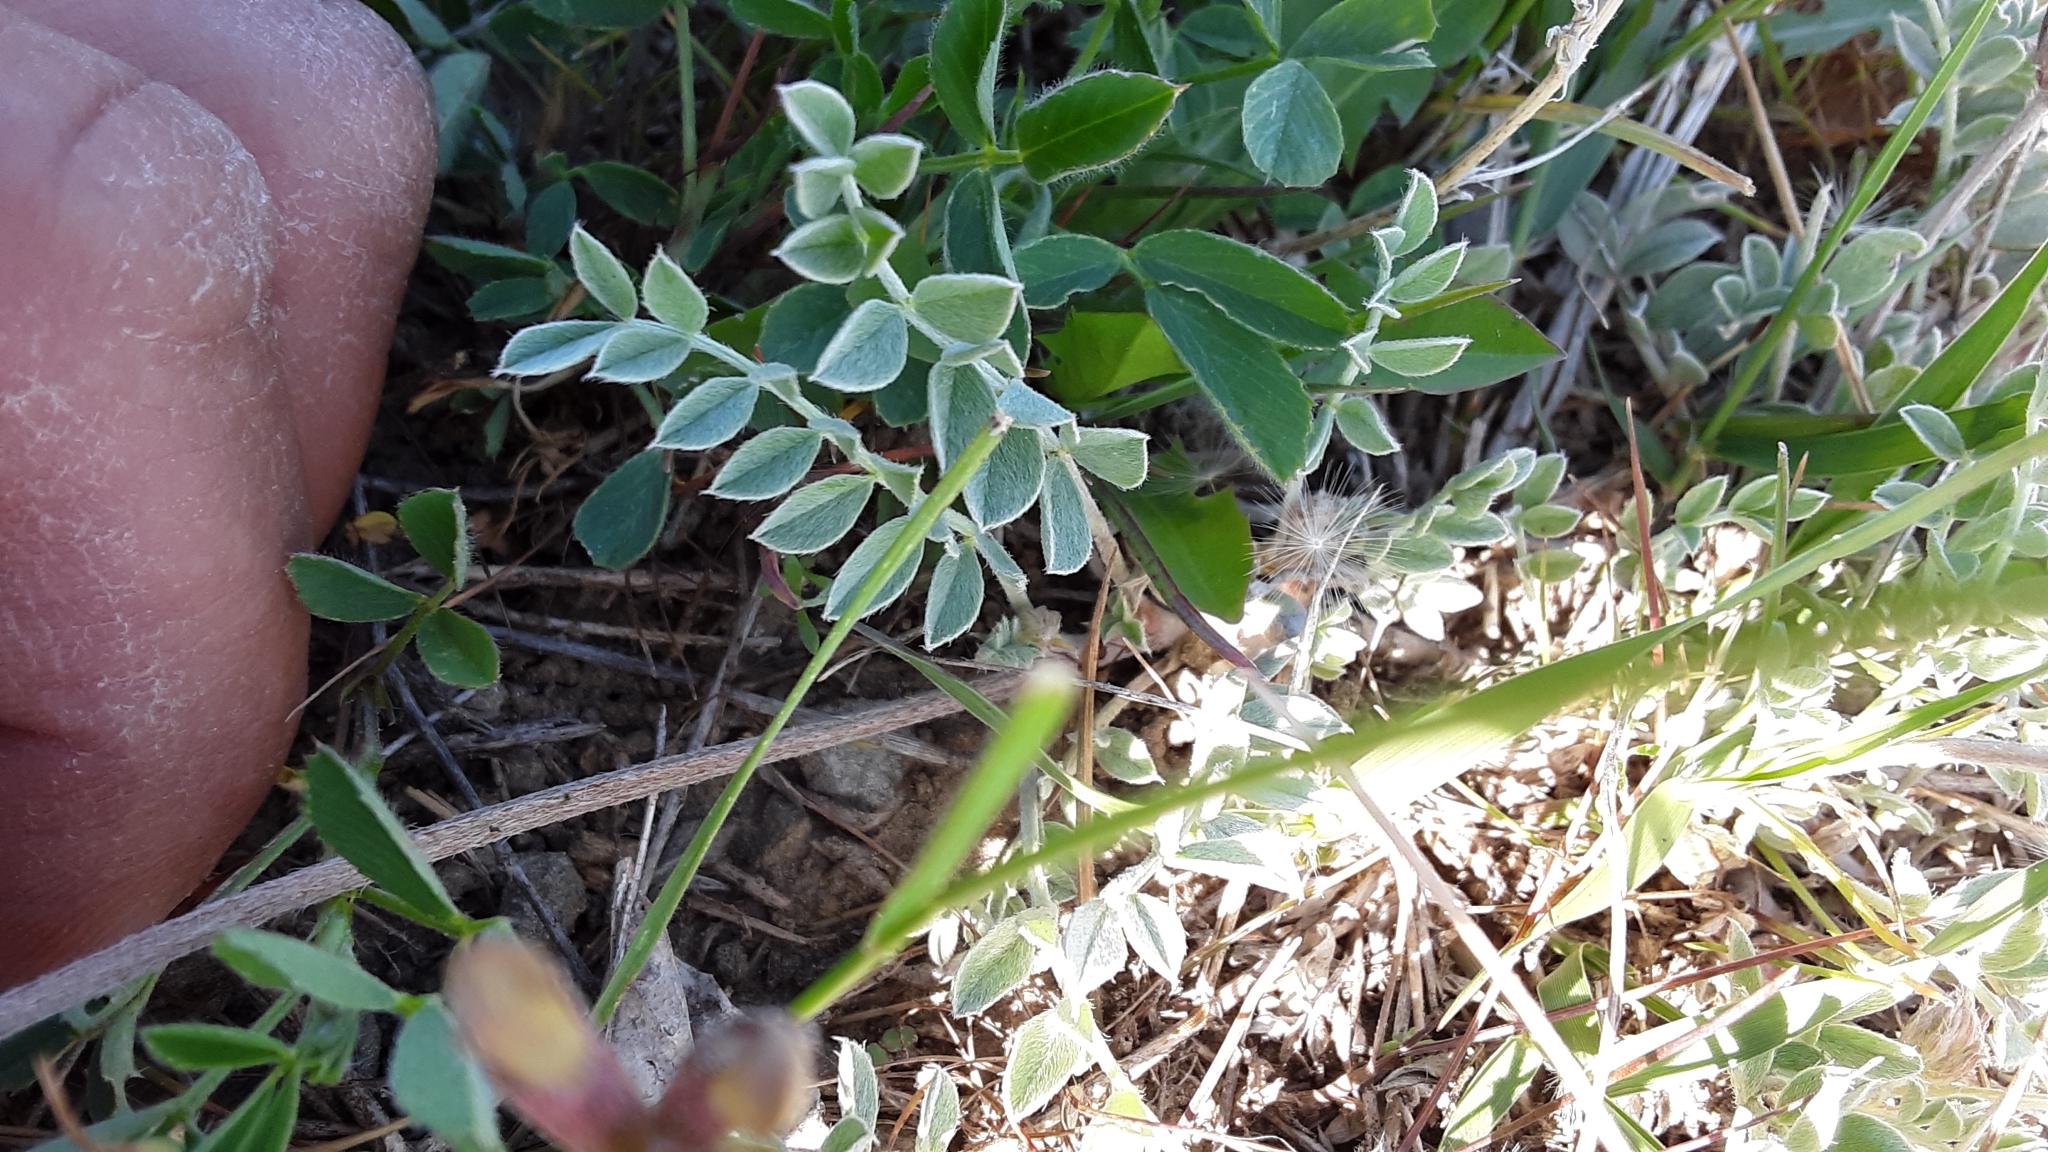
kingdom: Plantae
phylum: Tracheophyta
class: Magnoliopsida
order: Fabales
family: Fabaceae
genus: Astragalus
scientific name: Astragalus missouriensis
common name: Missouri milk-vetch
